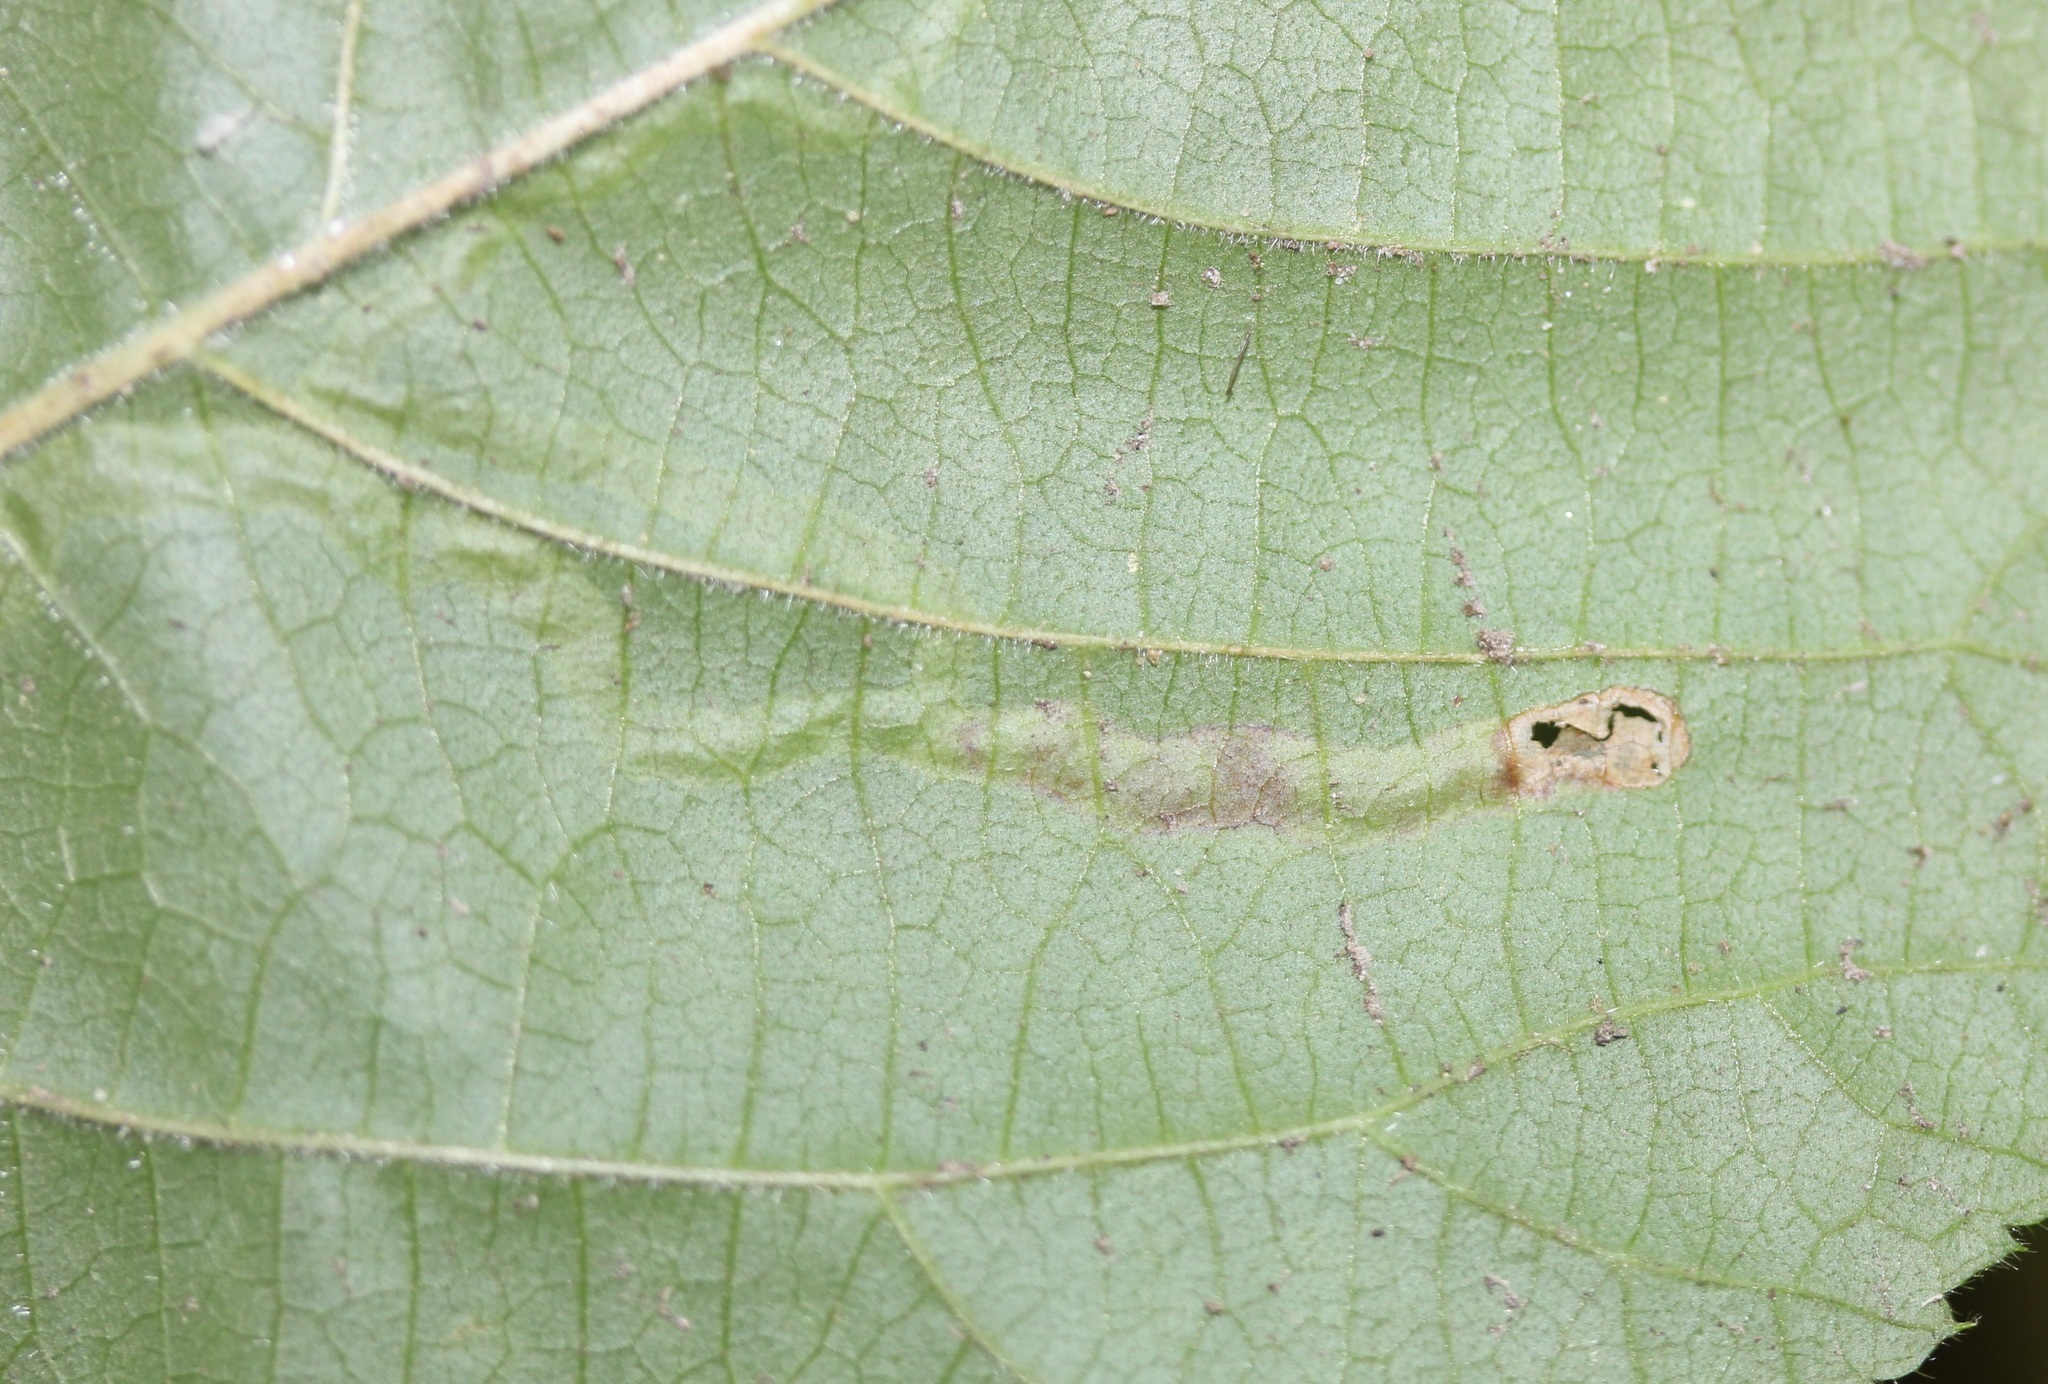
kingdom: Animalia
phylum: Arthropoda
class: Insecta
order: Diptera
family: Agromyzidae
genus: Agromyza
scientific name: Agromyza vockerothi
